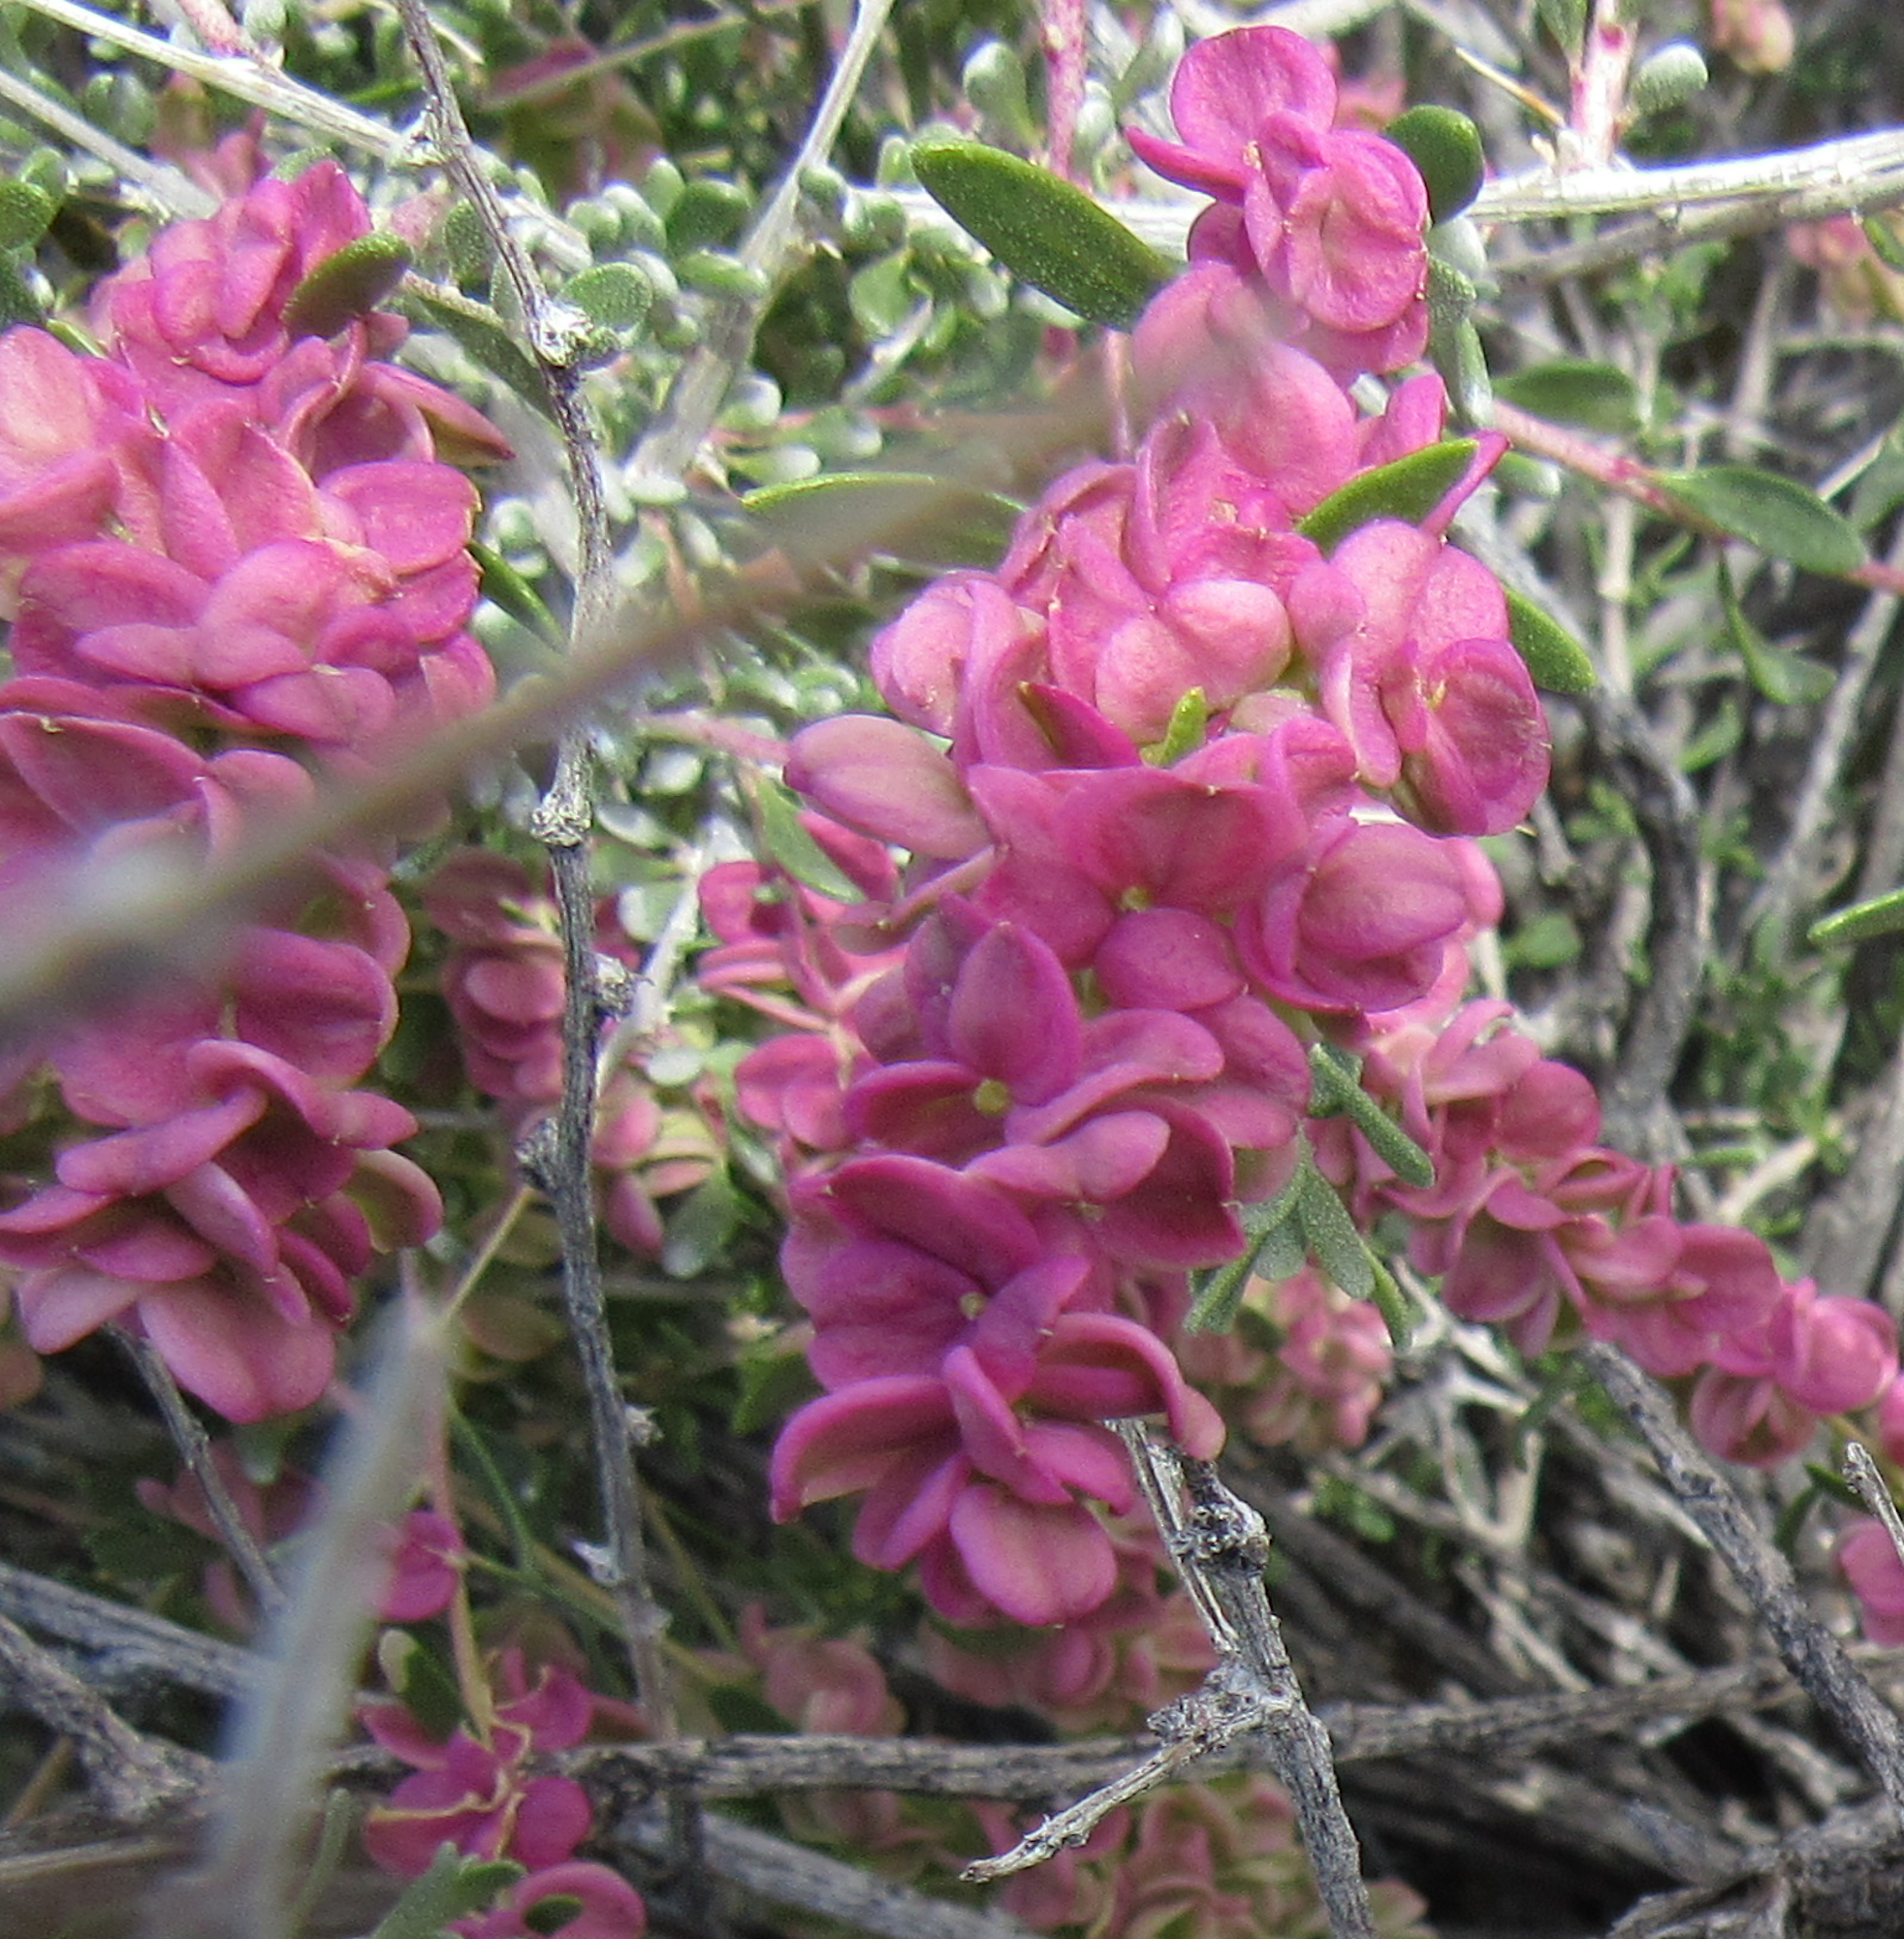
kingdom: Plantae
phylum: Tracheophyta
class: Magnoliopsida
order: Caryophyllales
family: Amaranthaceae
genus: Grayia
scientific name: Grayia spinosa
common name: Spiny hopsage
